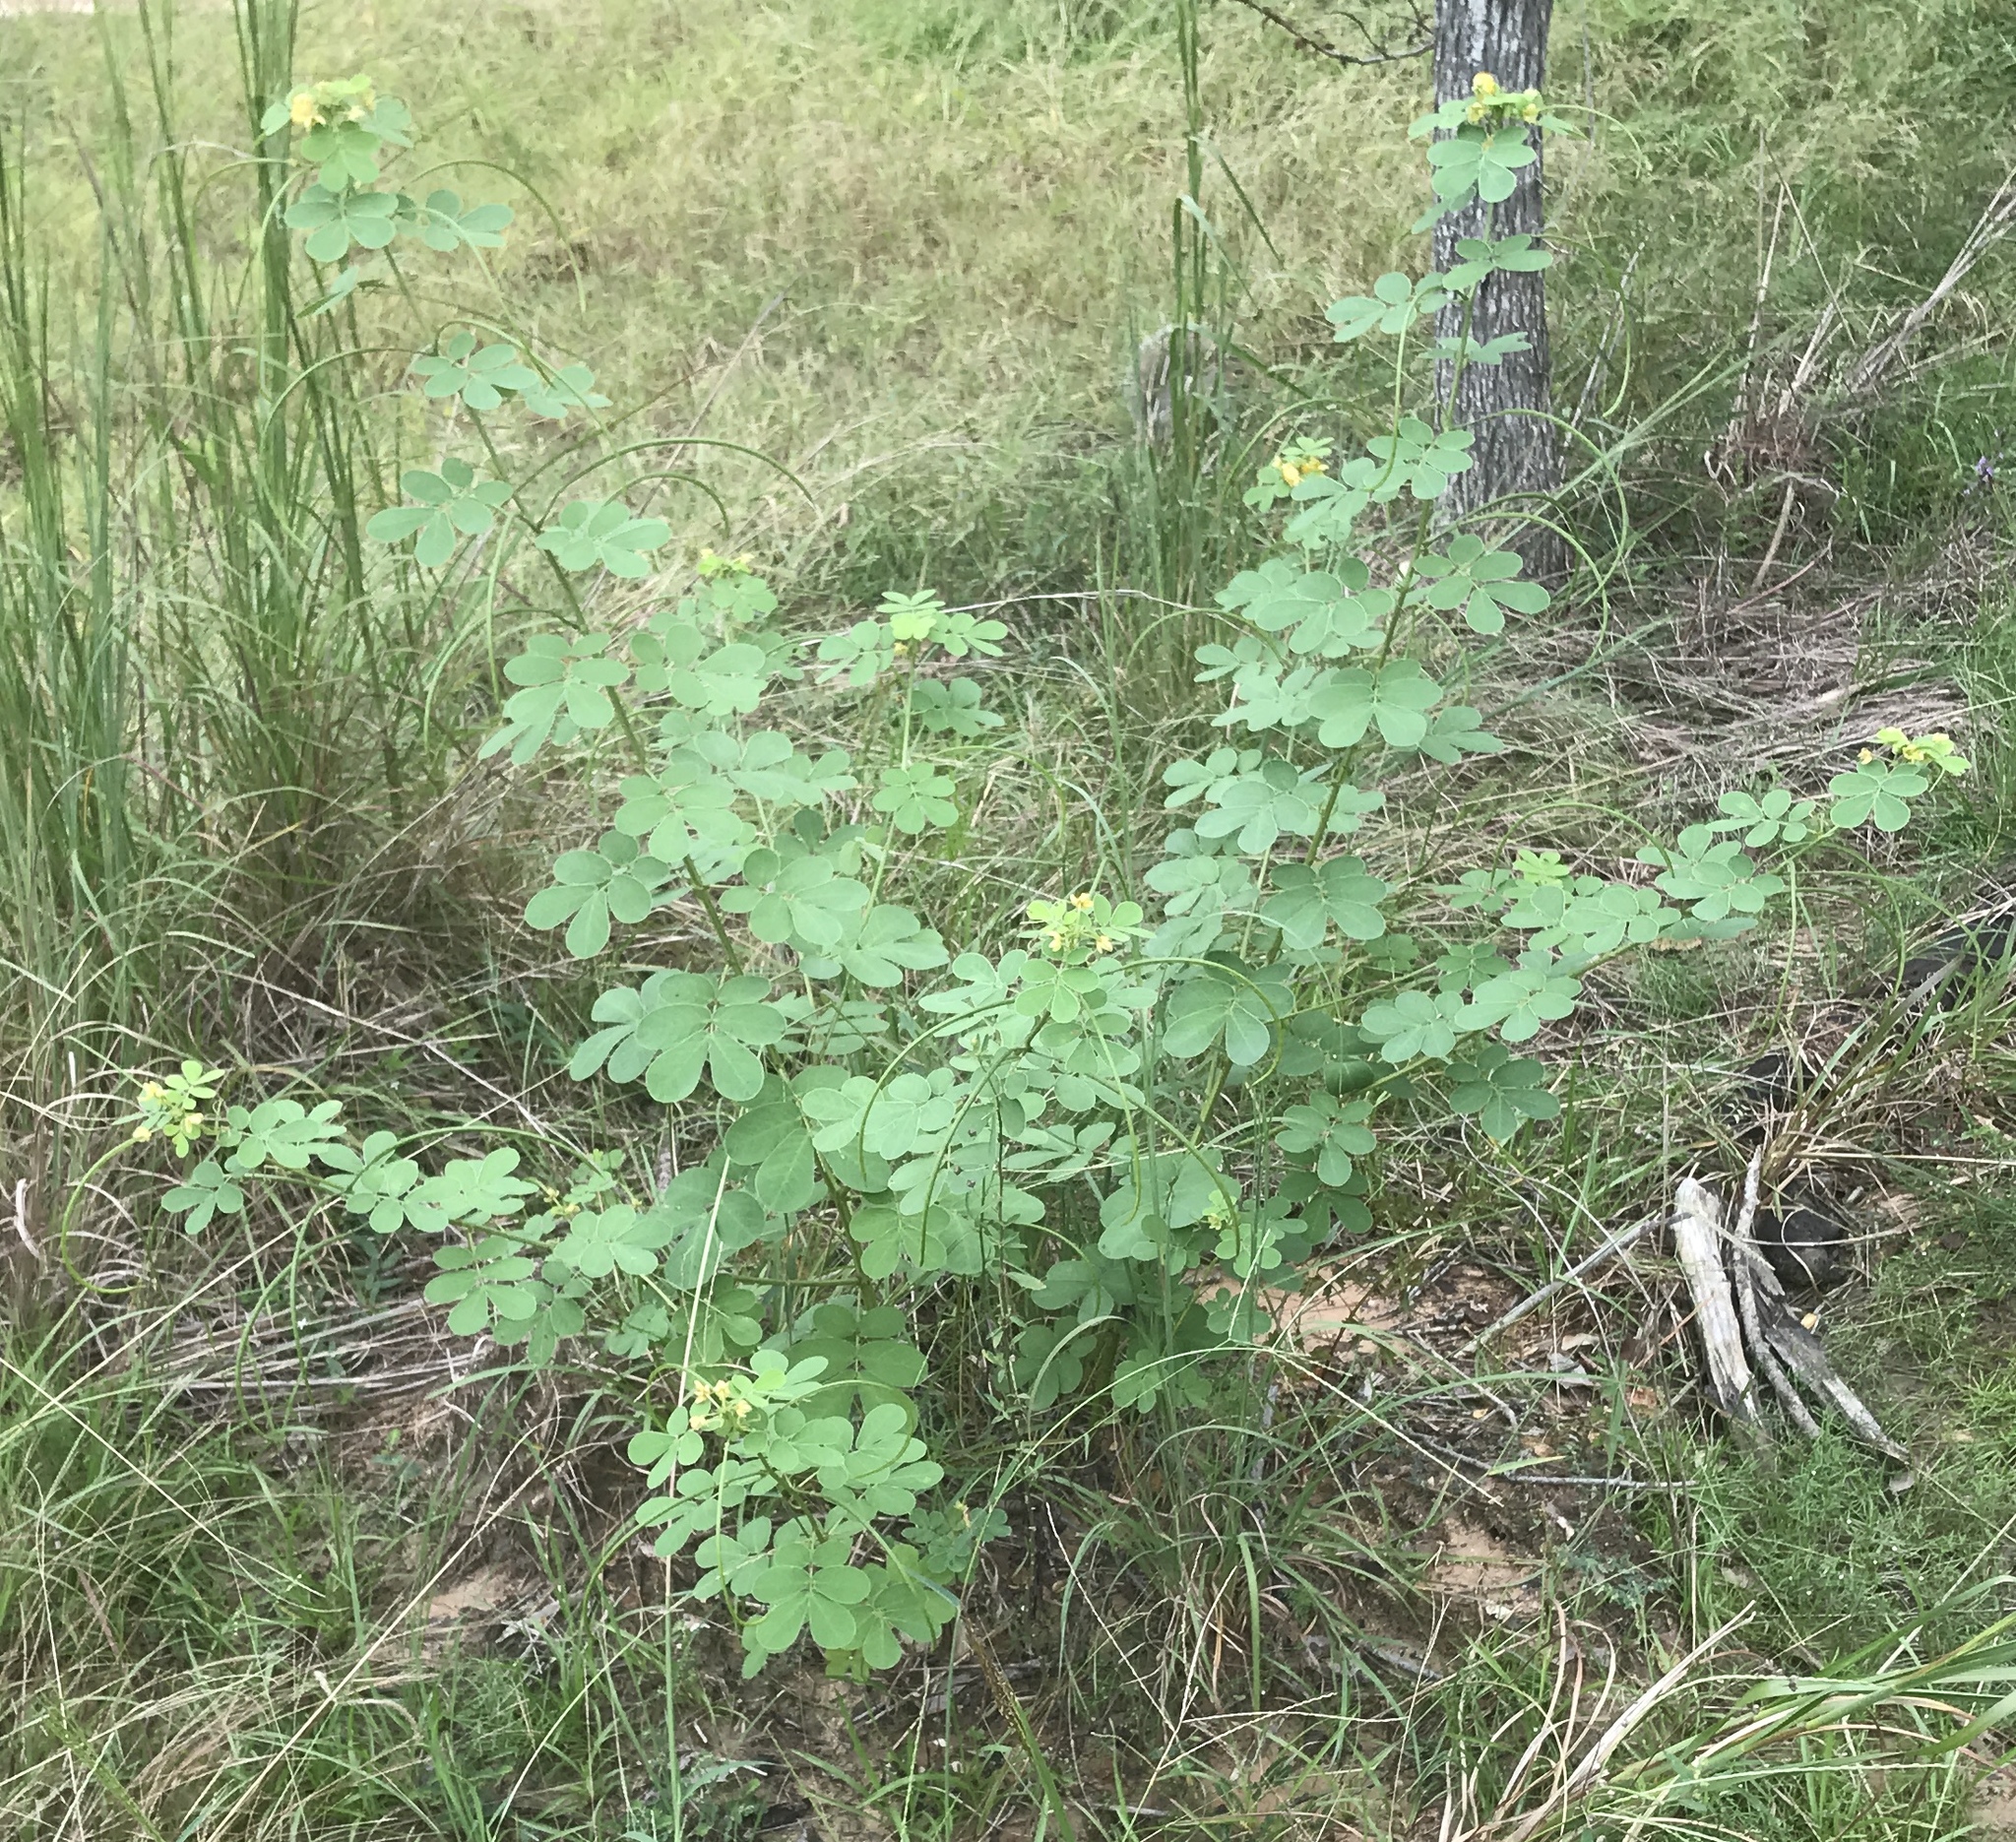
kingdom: Plantae
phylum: Tracheophyta
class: Magnoliopsida
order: Fabales
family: Fabaceae
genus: Senna
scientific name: Senna obtusifolia
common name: Java-bean
